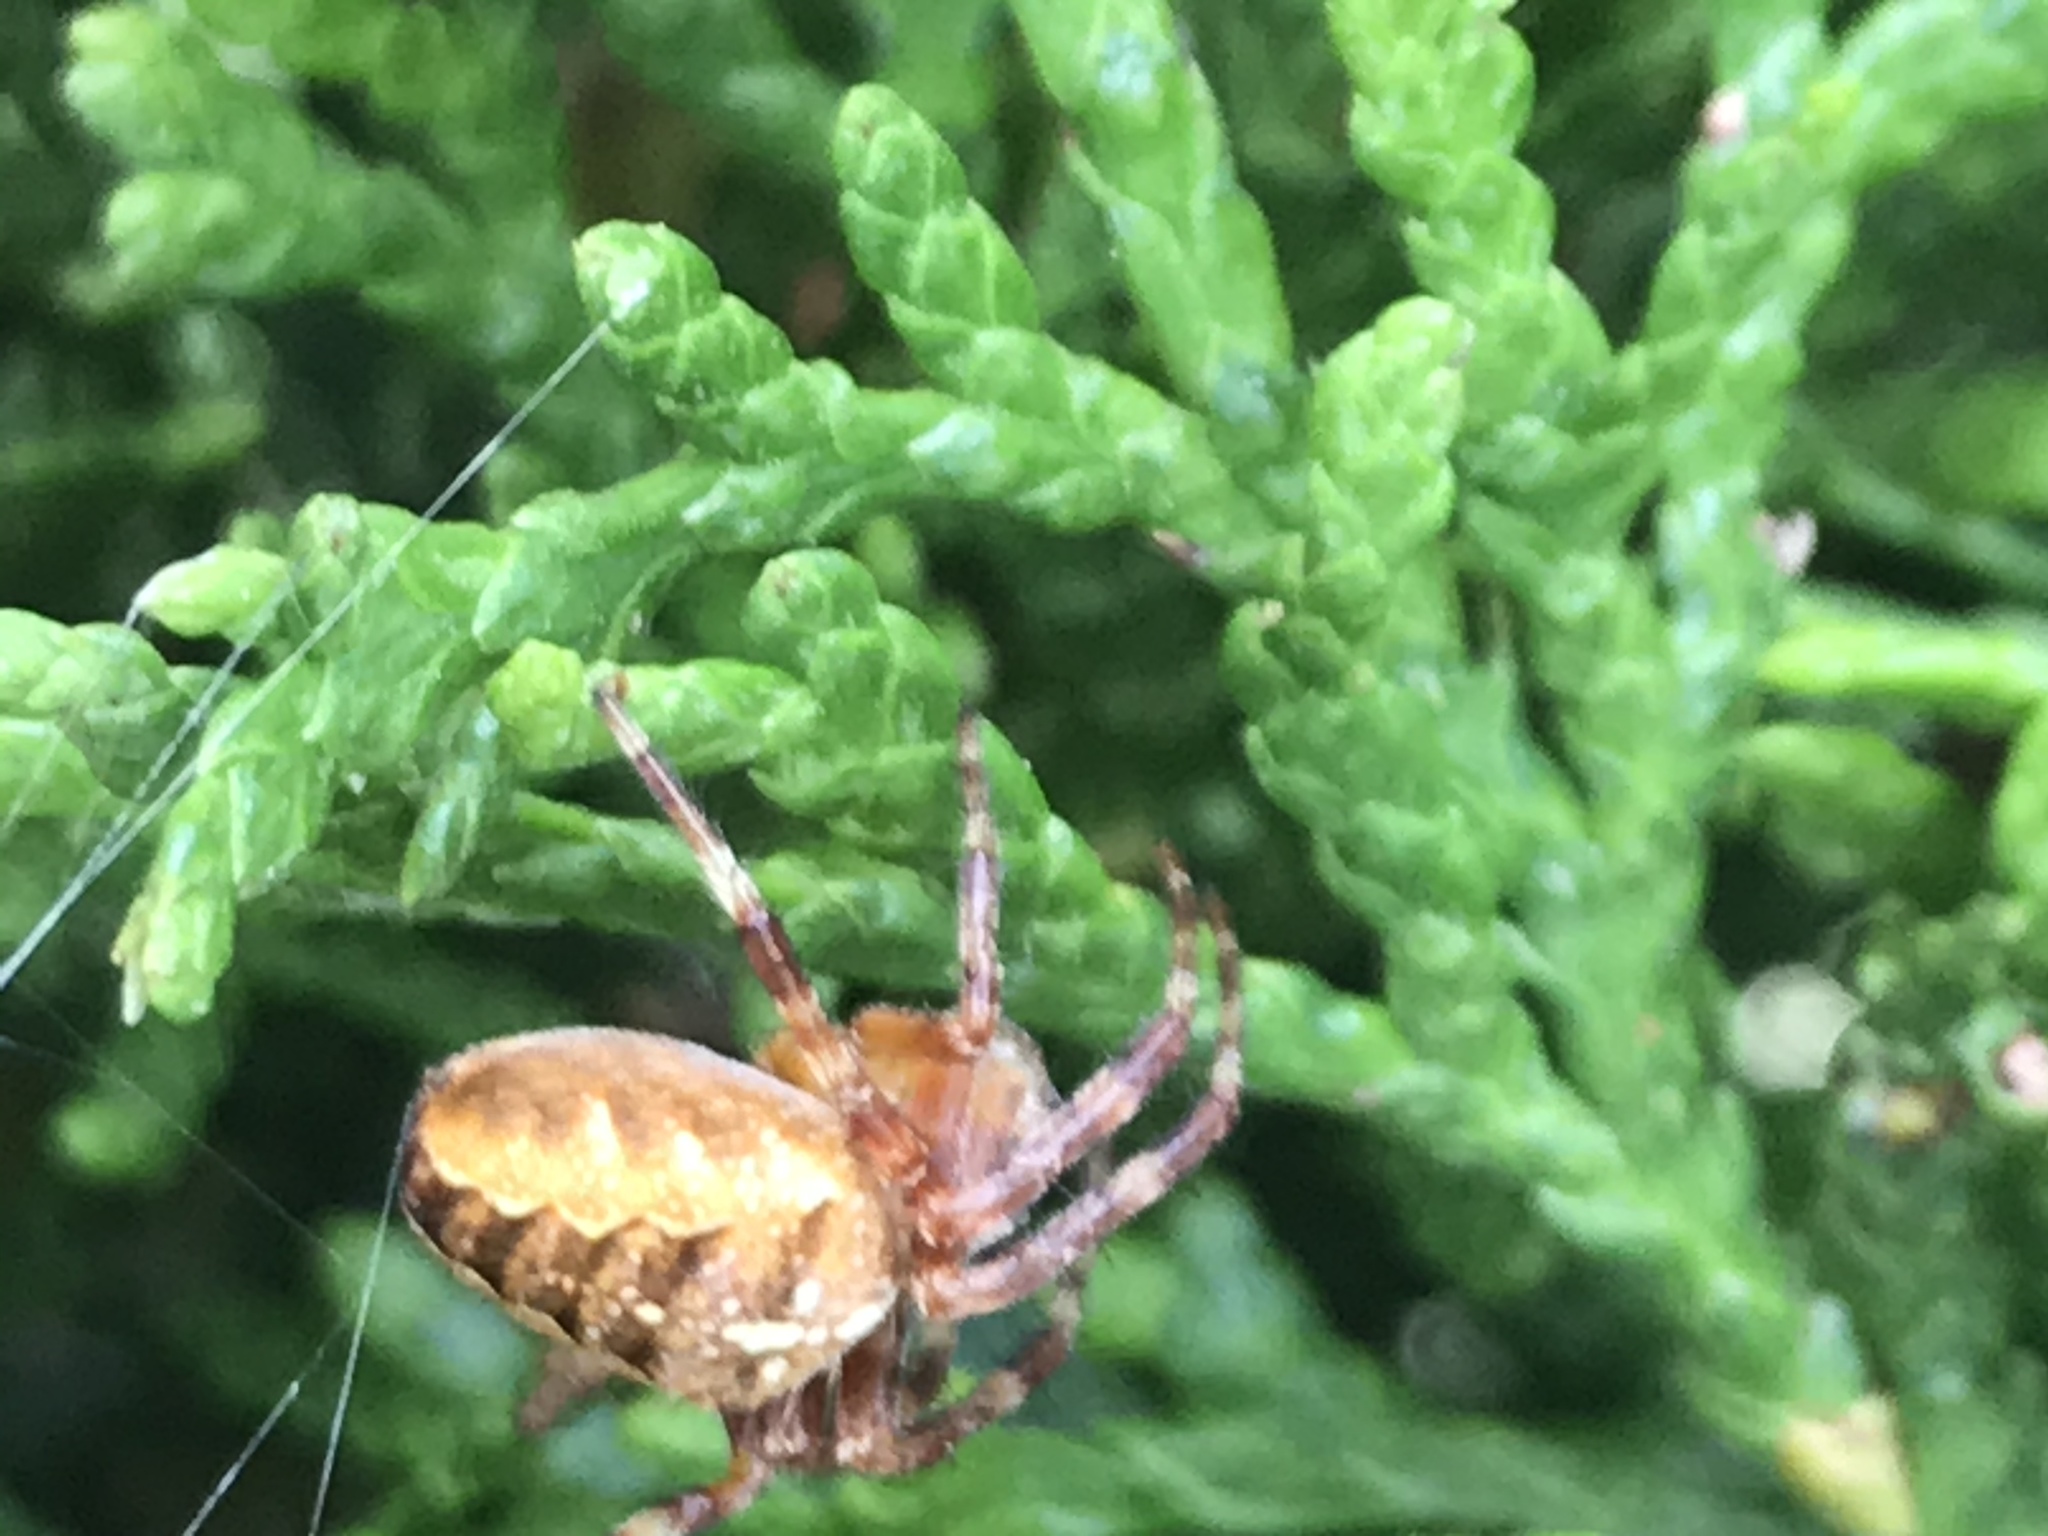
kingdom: Animalia
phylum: Arthropoda
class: Arachnida
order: Araneae
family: Araneidae
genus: Araneus
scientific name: Araneus diadematus
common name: Cross orbweaver
